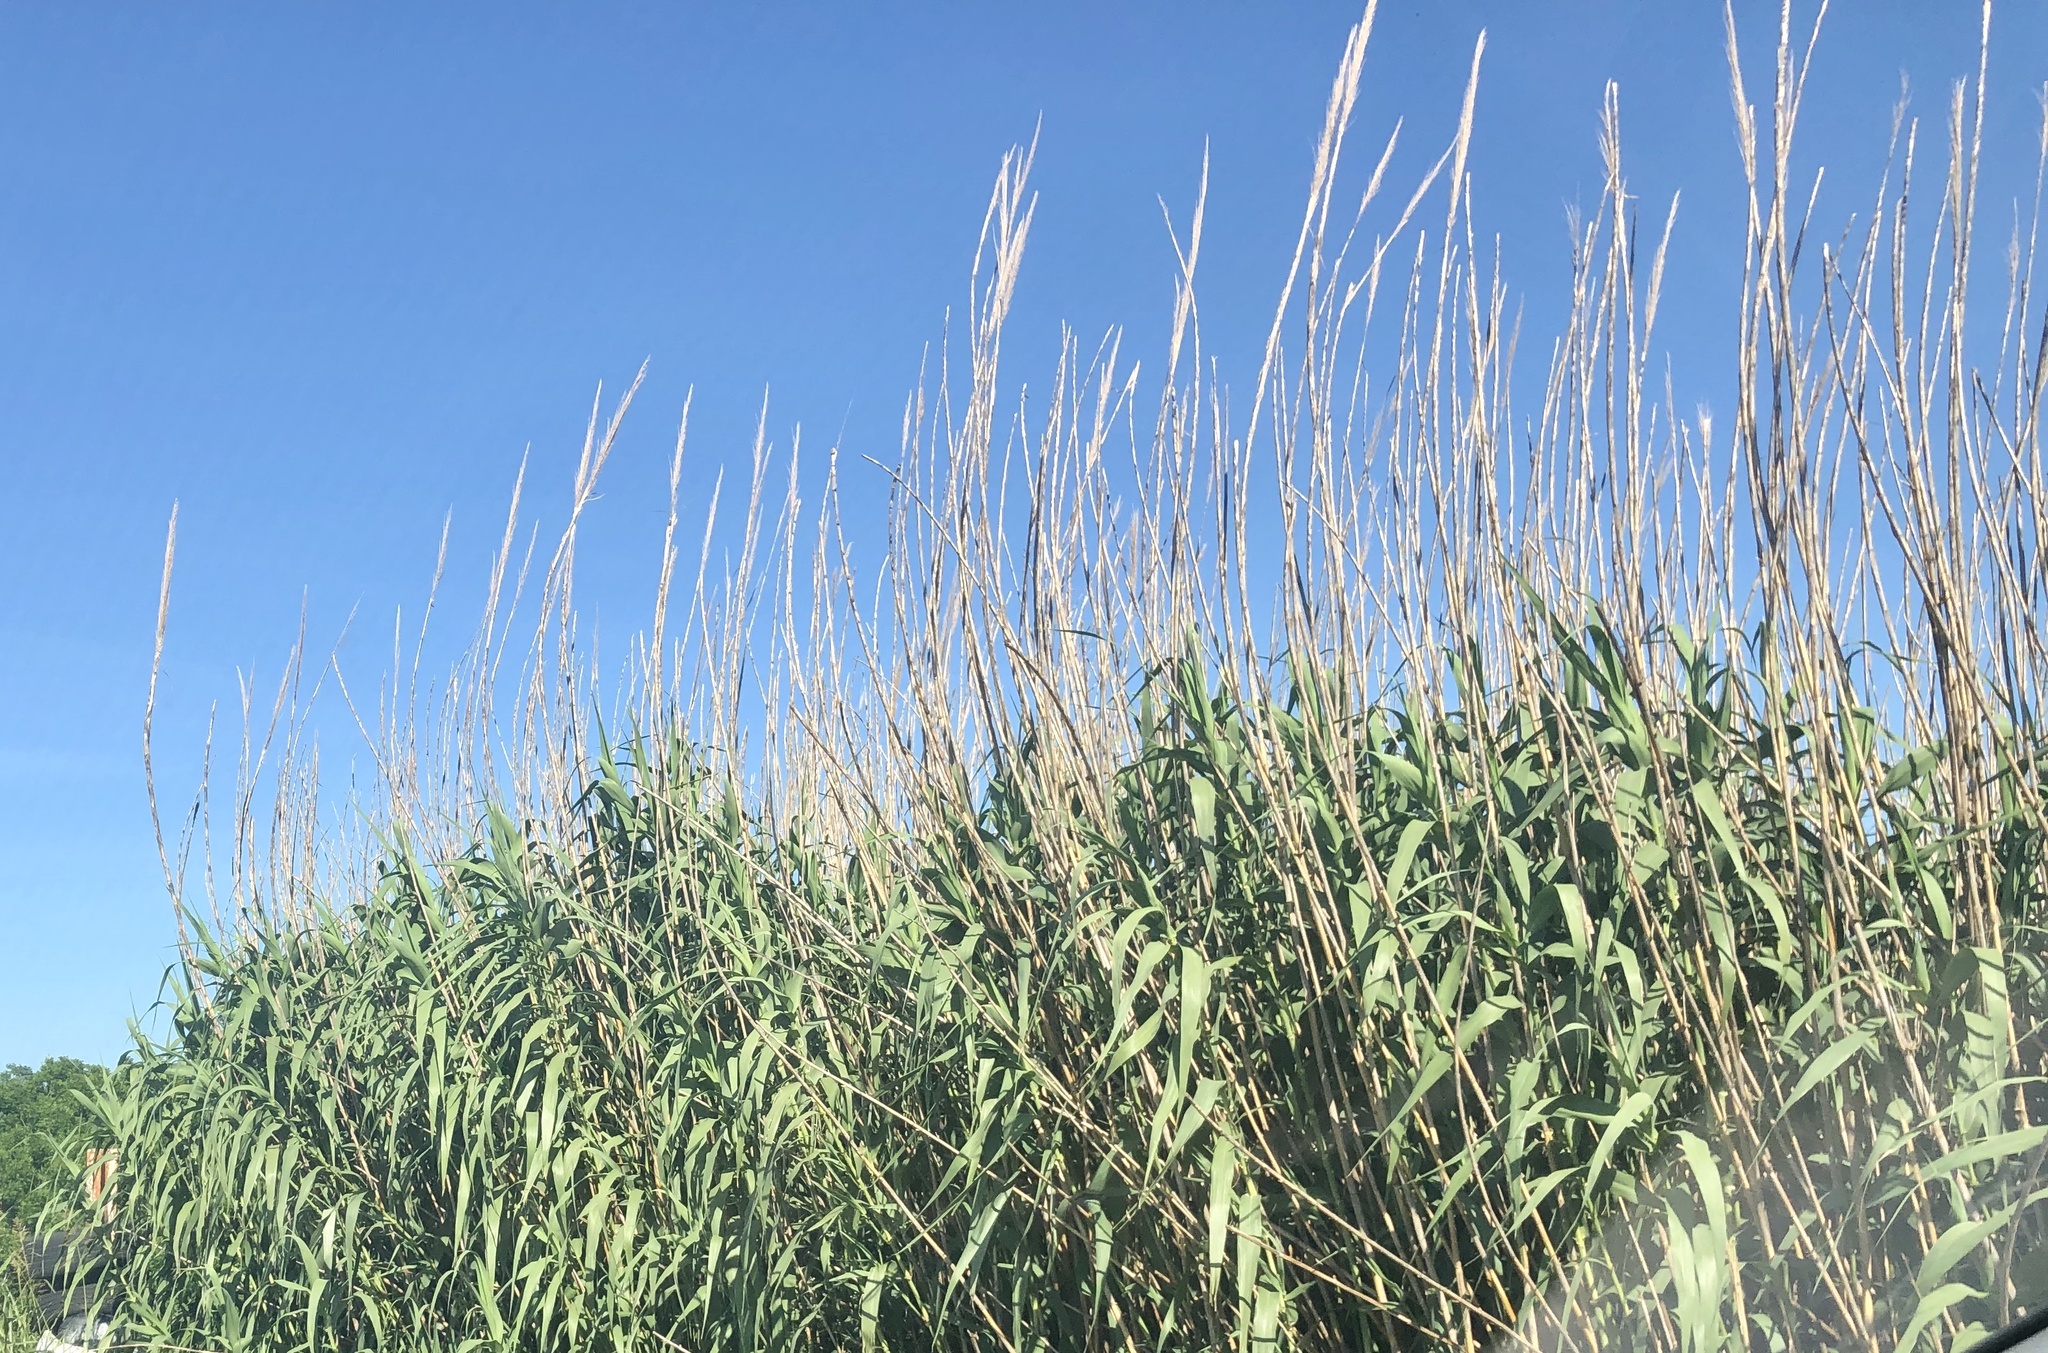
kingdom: Plantae
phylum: Tracheophyta
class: Liliopsida
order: Poales
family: Poaceae
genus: Arundo
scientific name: Arundo donax
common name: Giant reed
